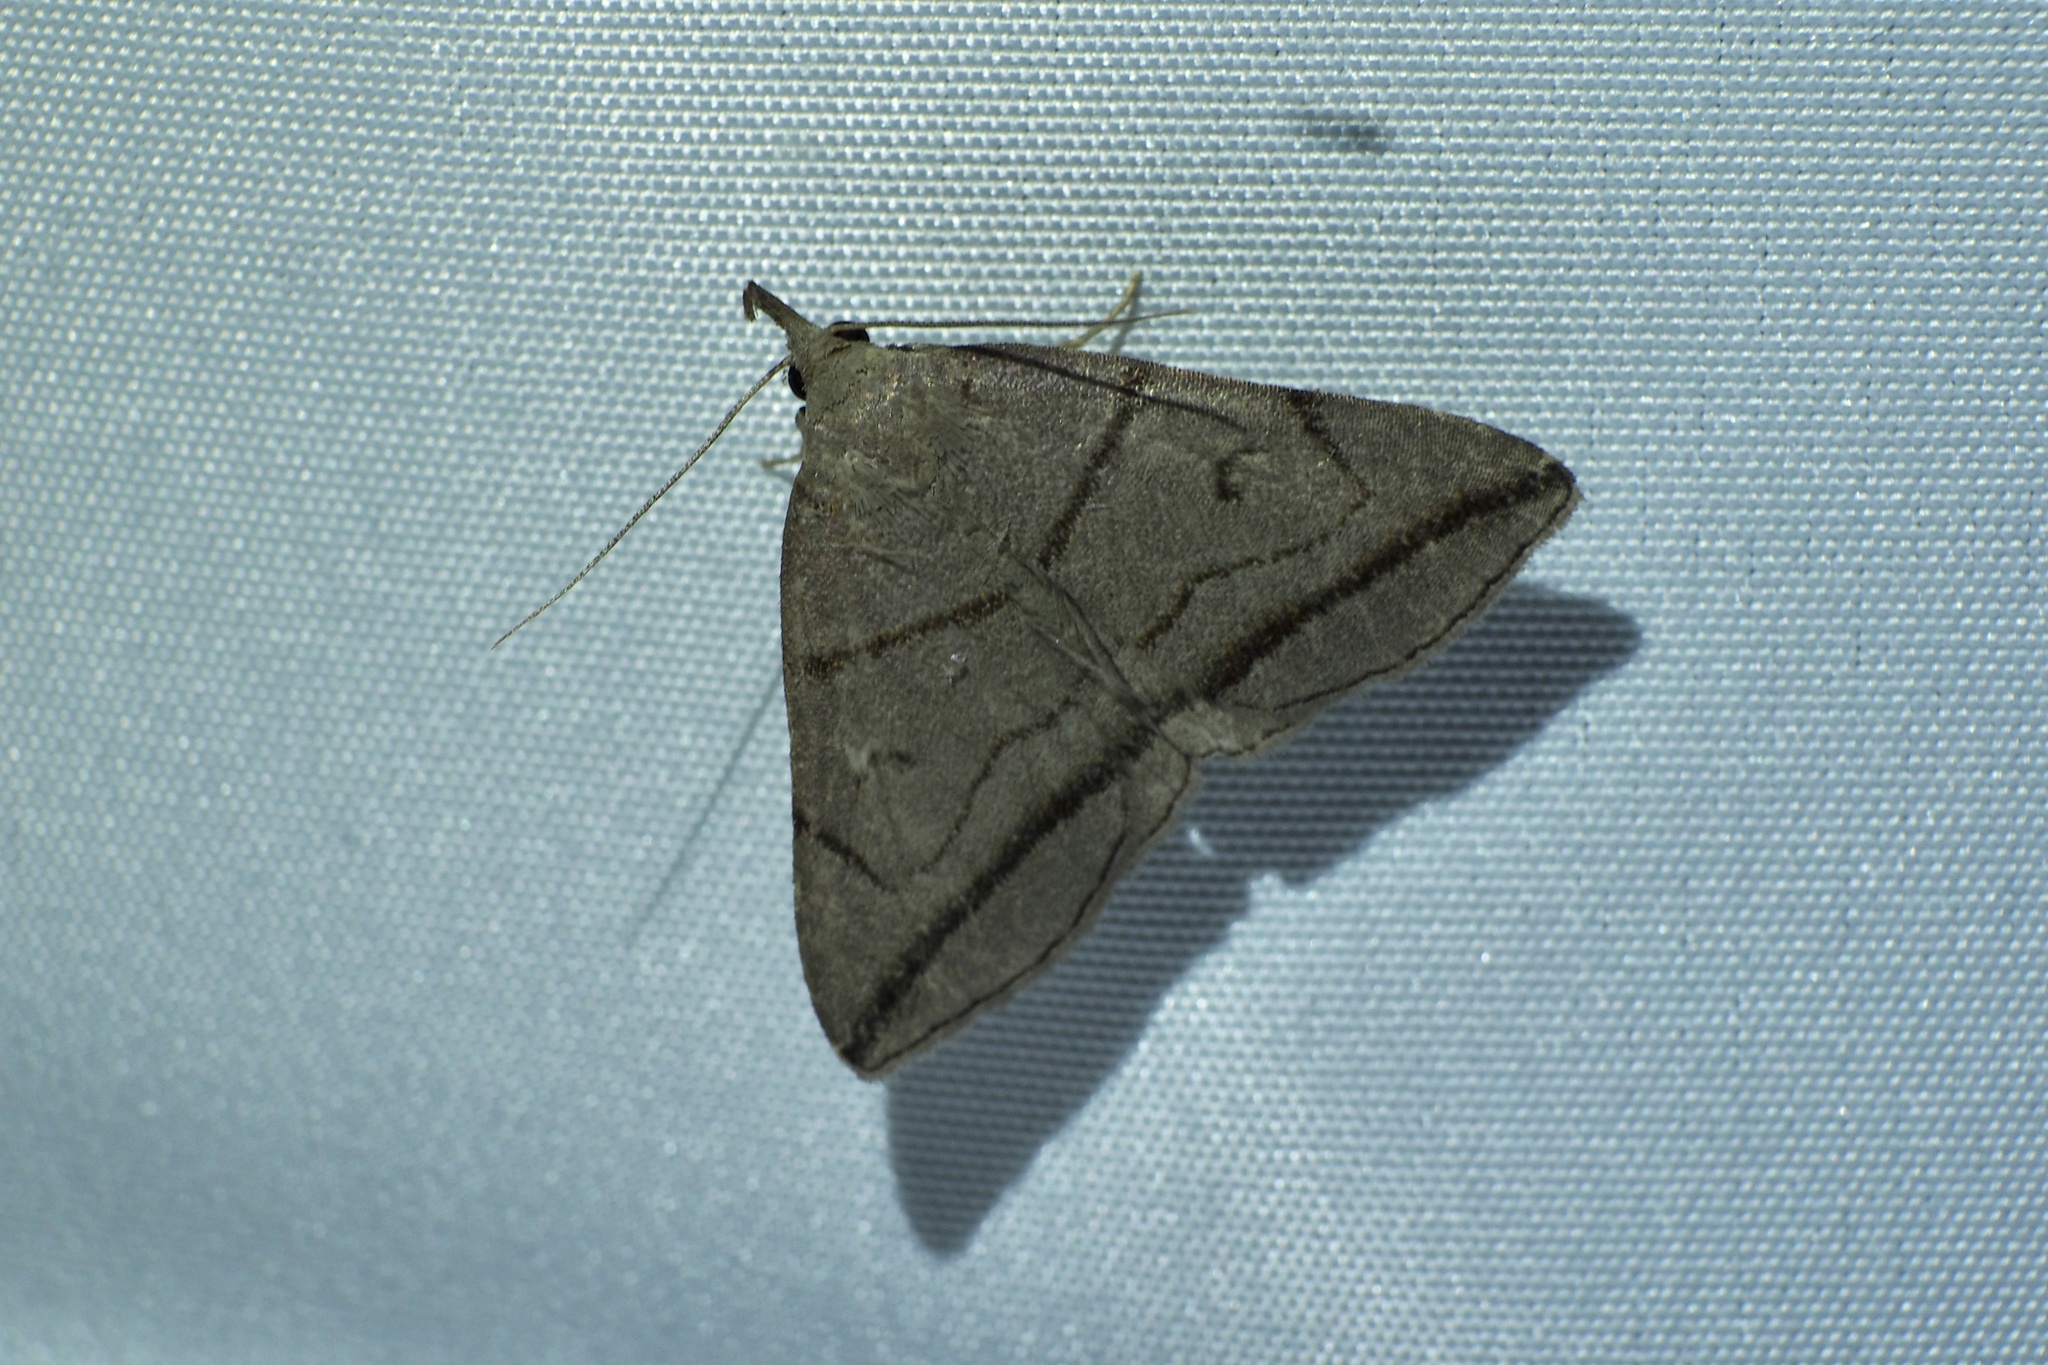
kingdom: Animalia
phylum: Arthropoda
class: Insecta
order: Lepidoptera
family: Erebidae
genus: Zanclognatha
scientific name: Zanclognatha griselda
